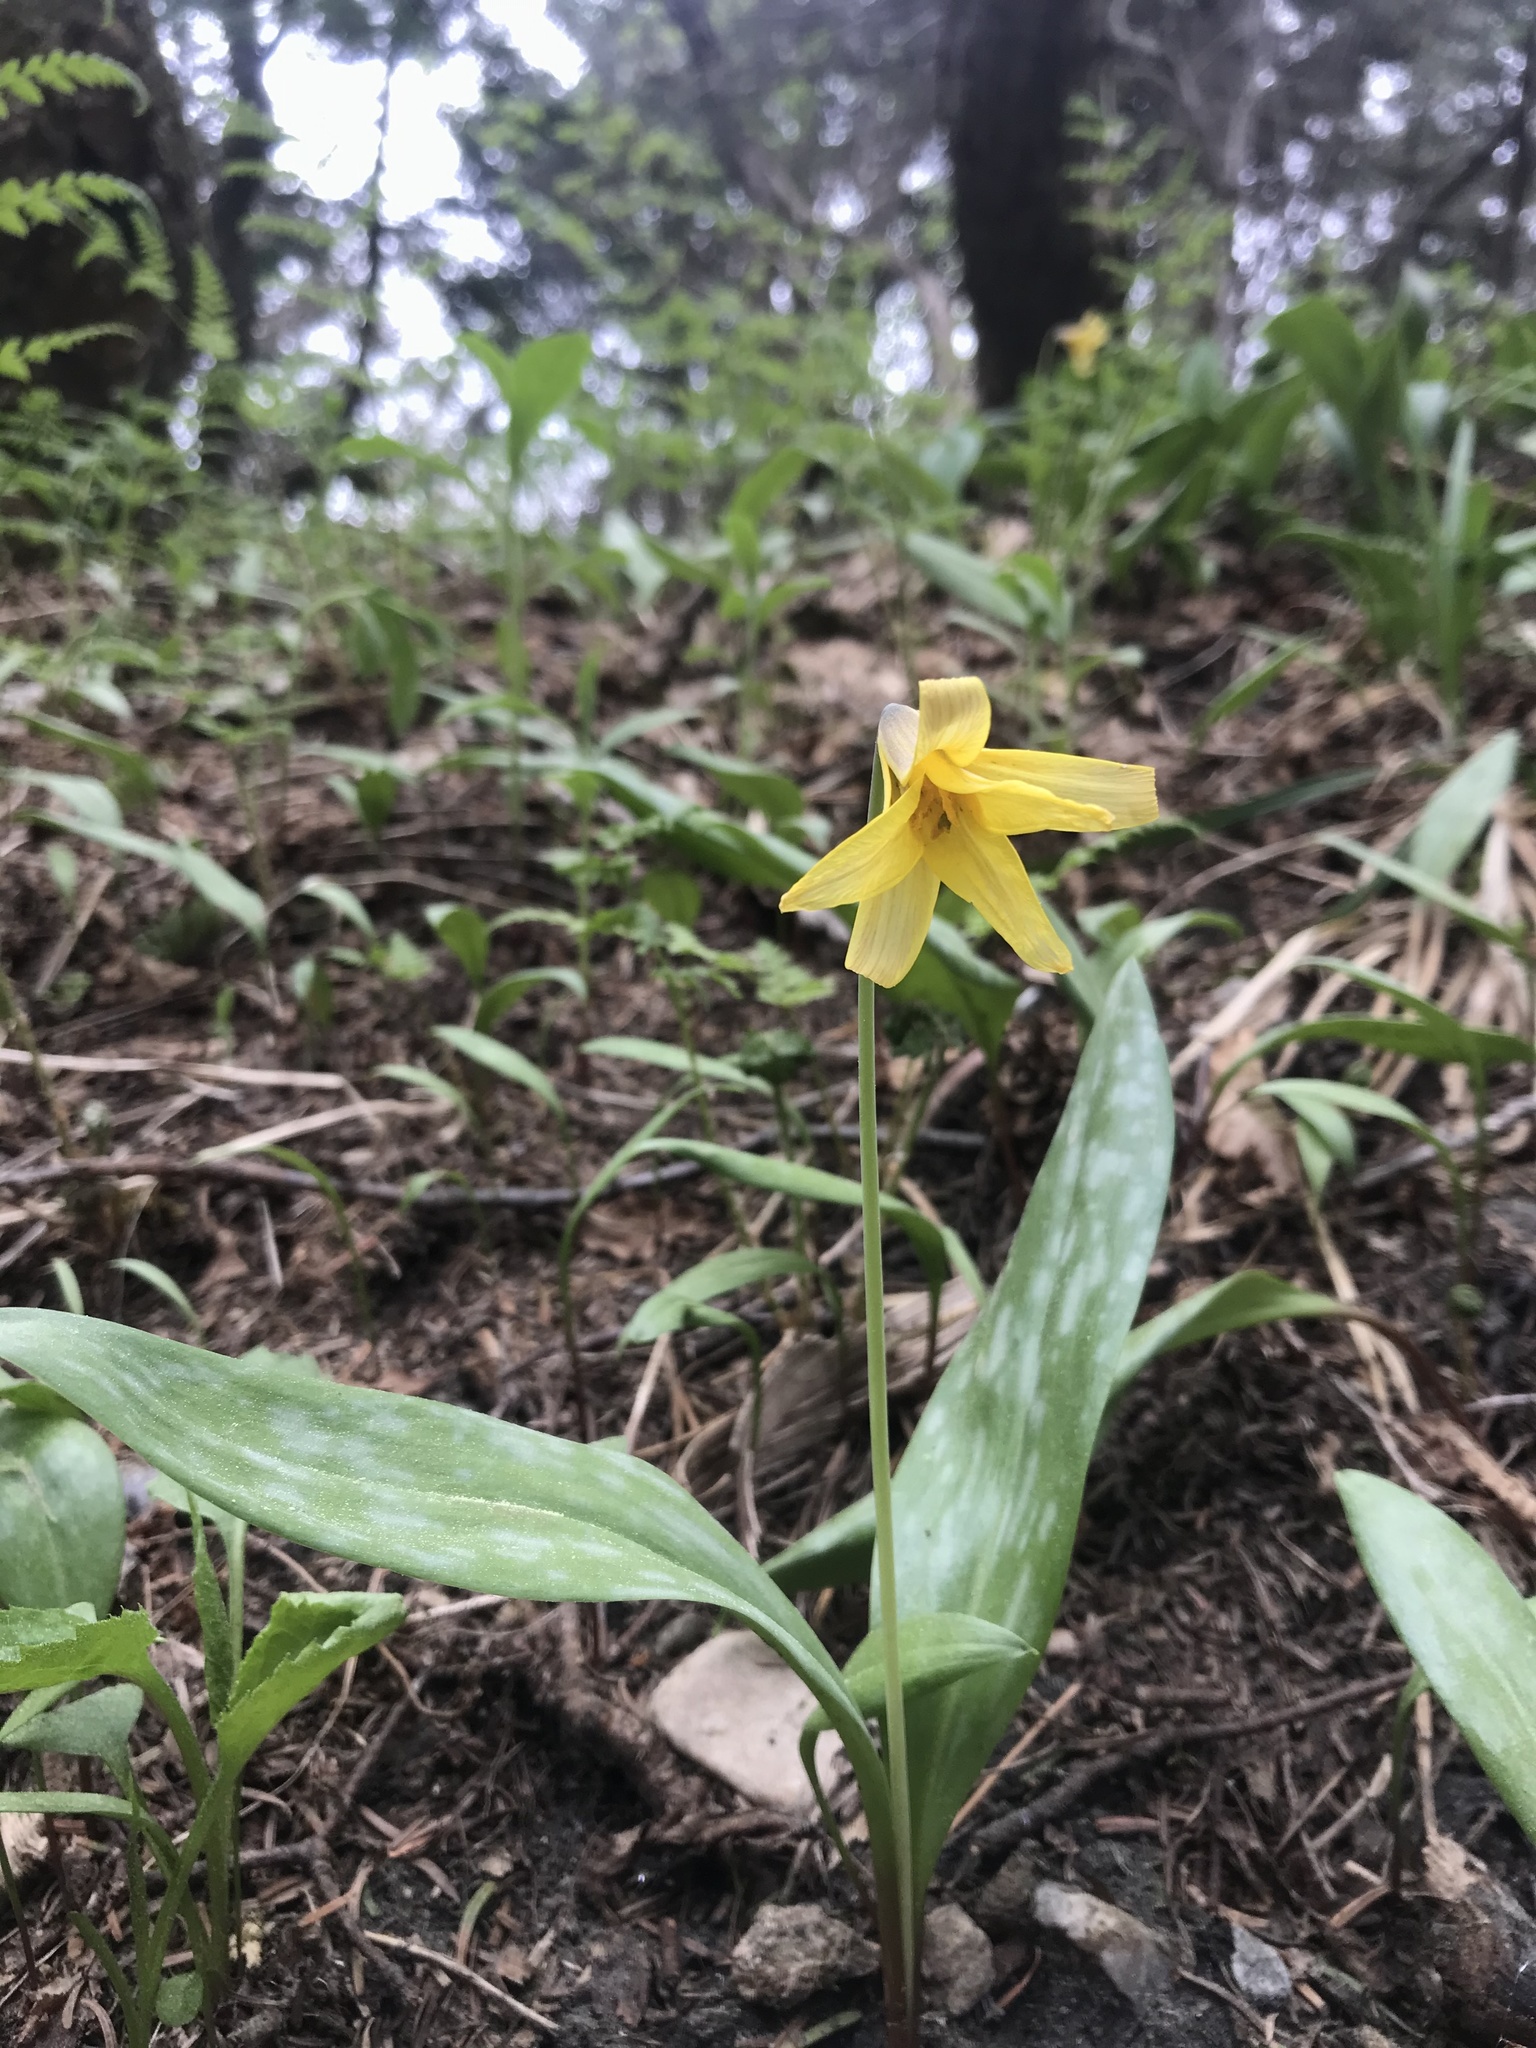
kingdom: Plantae
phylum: Tracheophyta
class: Liliopsida
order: Liliales
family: Liliaceae
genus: Erythronium
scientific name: Erythronium americanum
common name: Yellow adder's-tongue
